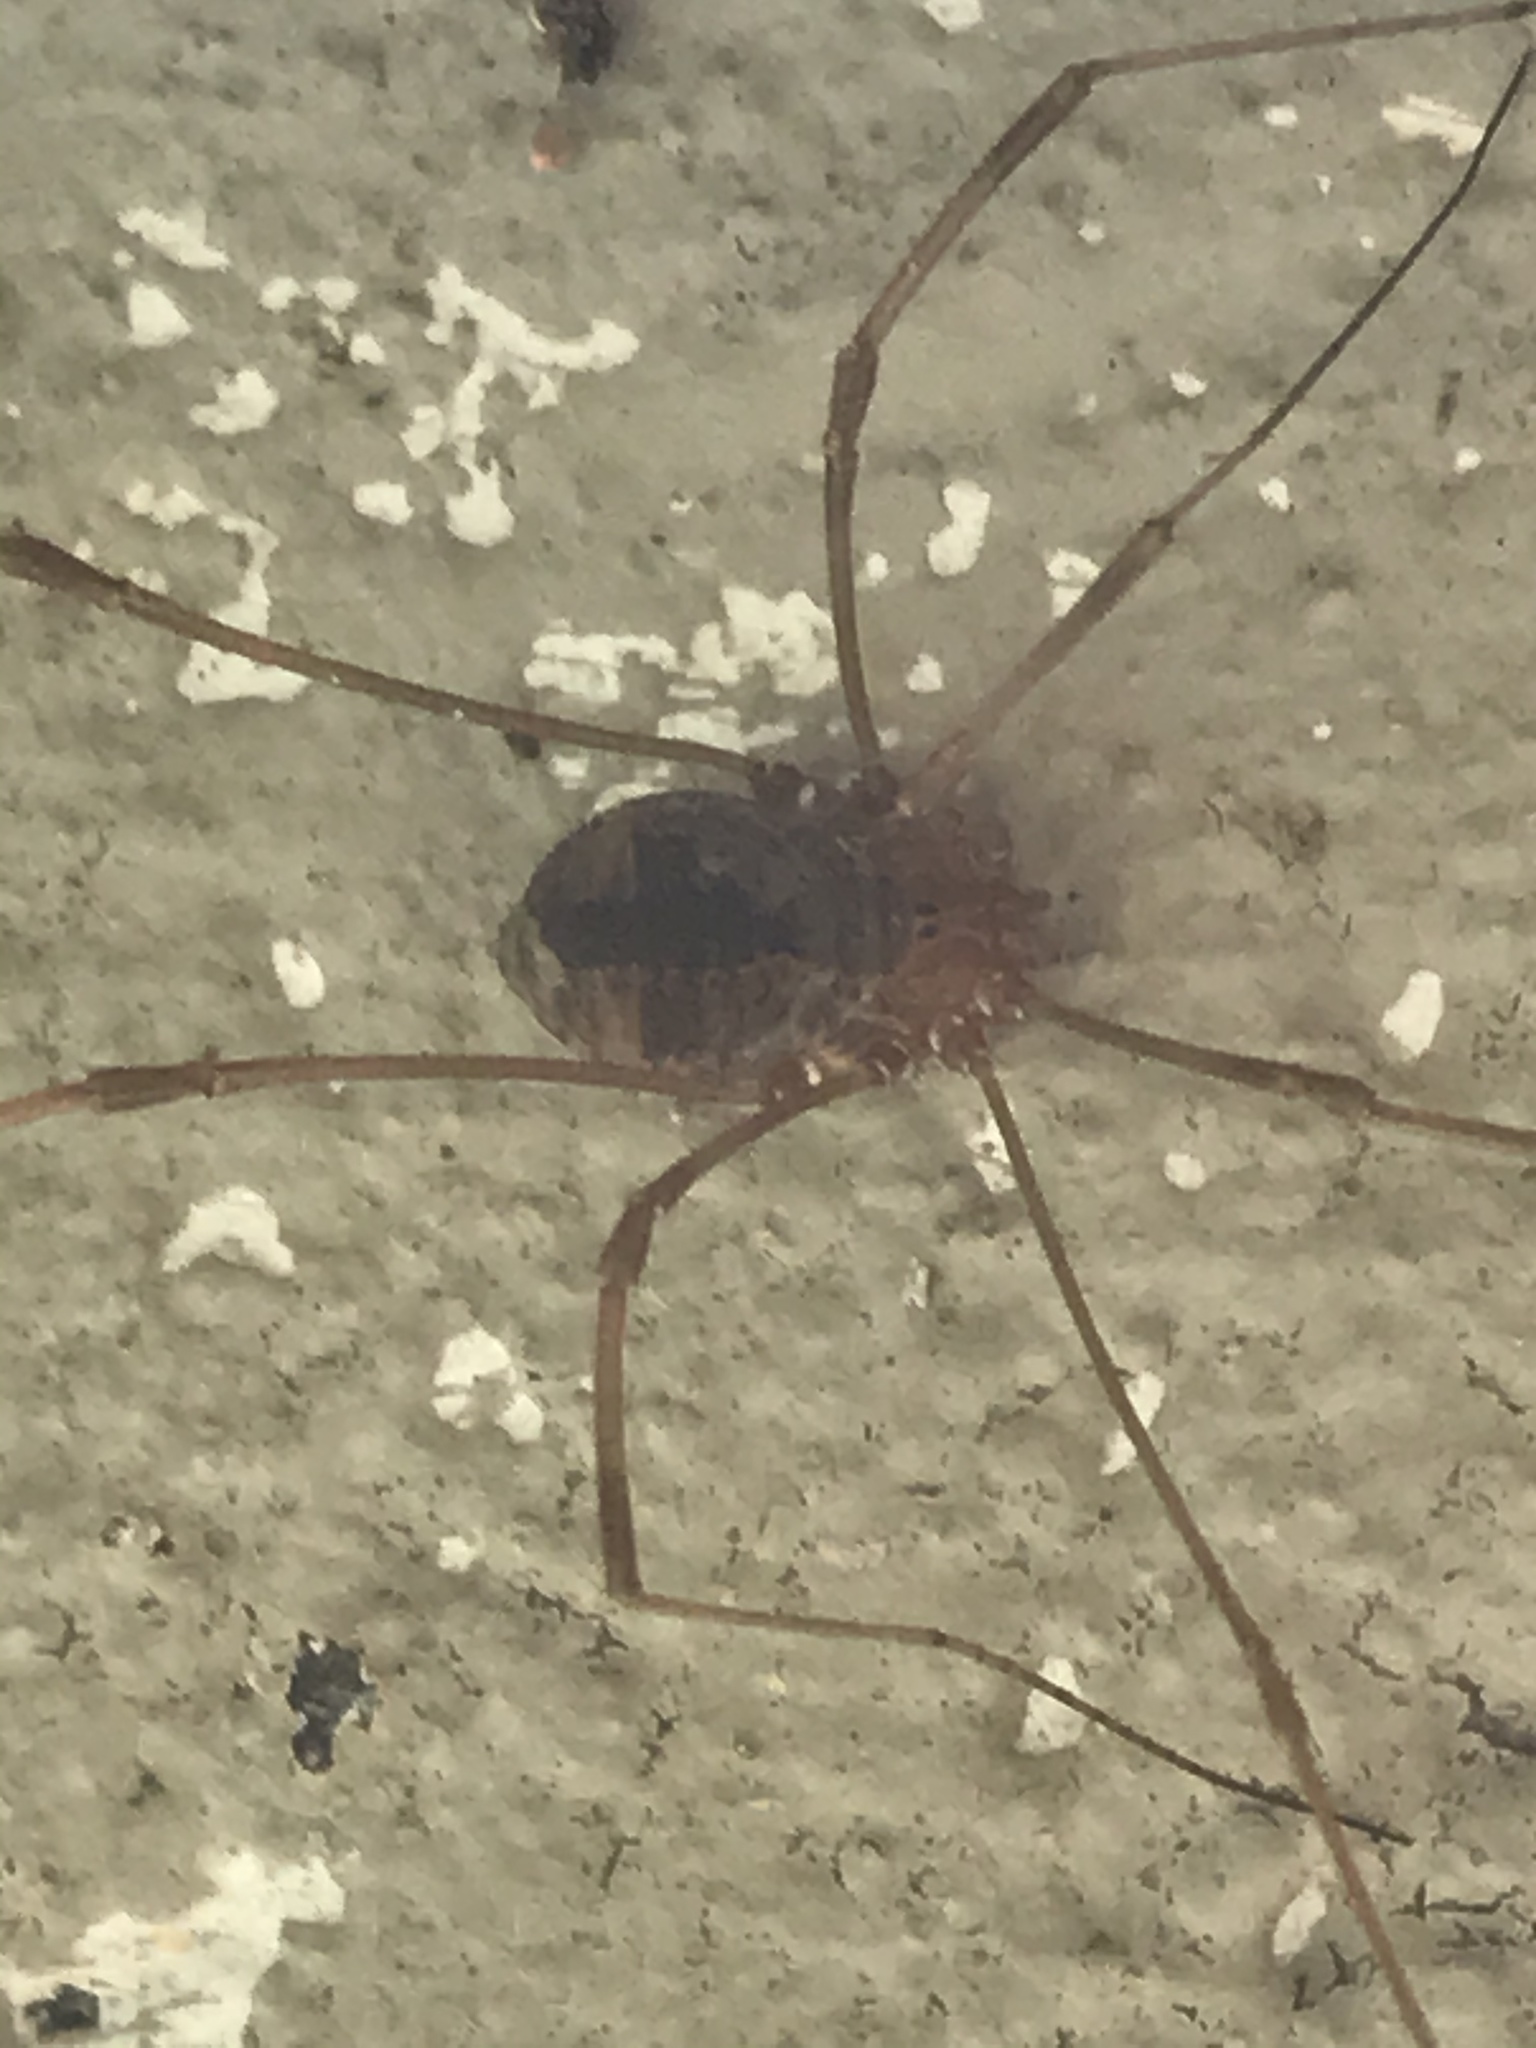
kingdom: Animalia
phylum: Arthropoda
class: Arachnida
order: Opiliones
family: Sclerosomatidae
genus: Leiobunum
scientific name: Leiobunum vittatum
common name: Eastern harvestman
